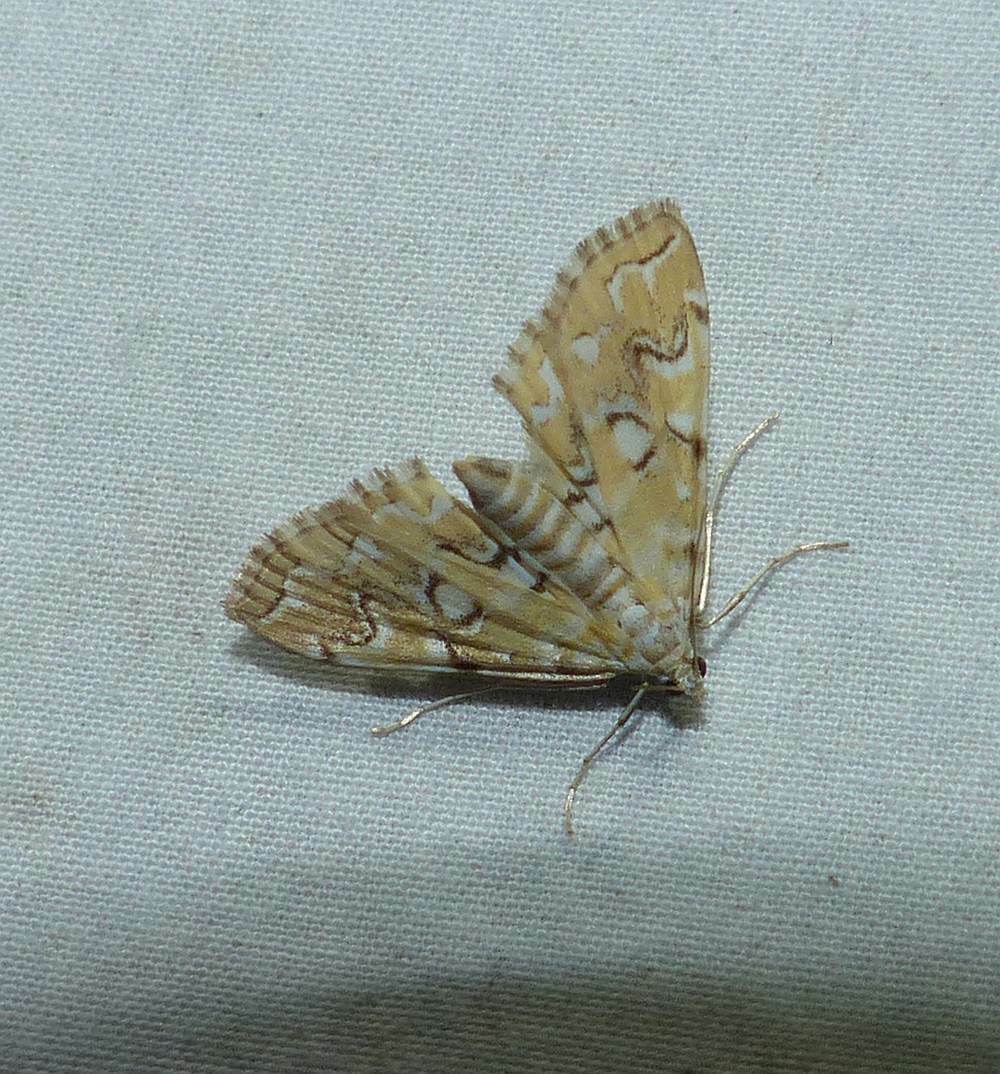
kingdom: Animalia
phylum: Arthropoda
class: Insecta
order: Lepidoptera
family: Crambidae
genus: Elophila
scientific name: Elophila icciusalis
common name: Pondside pyralid moth
